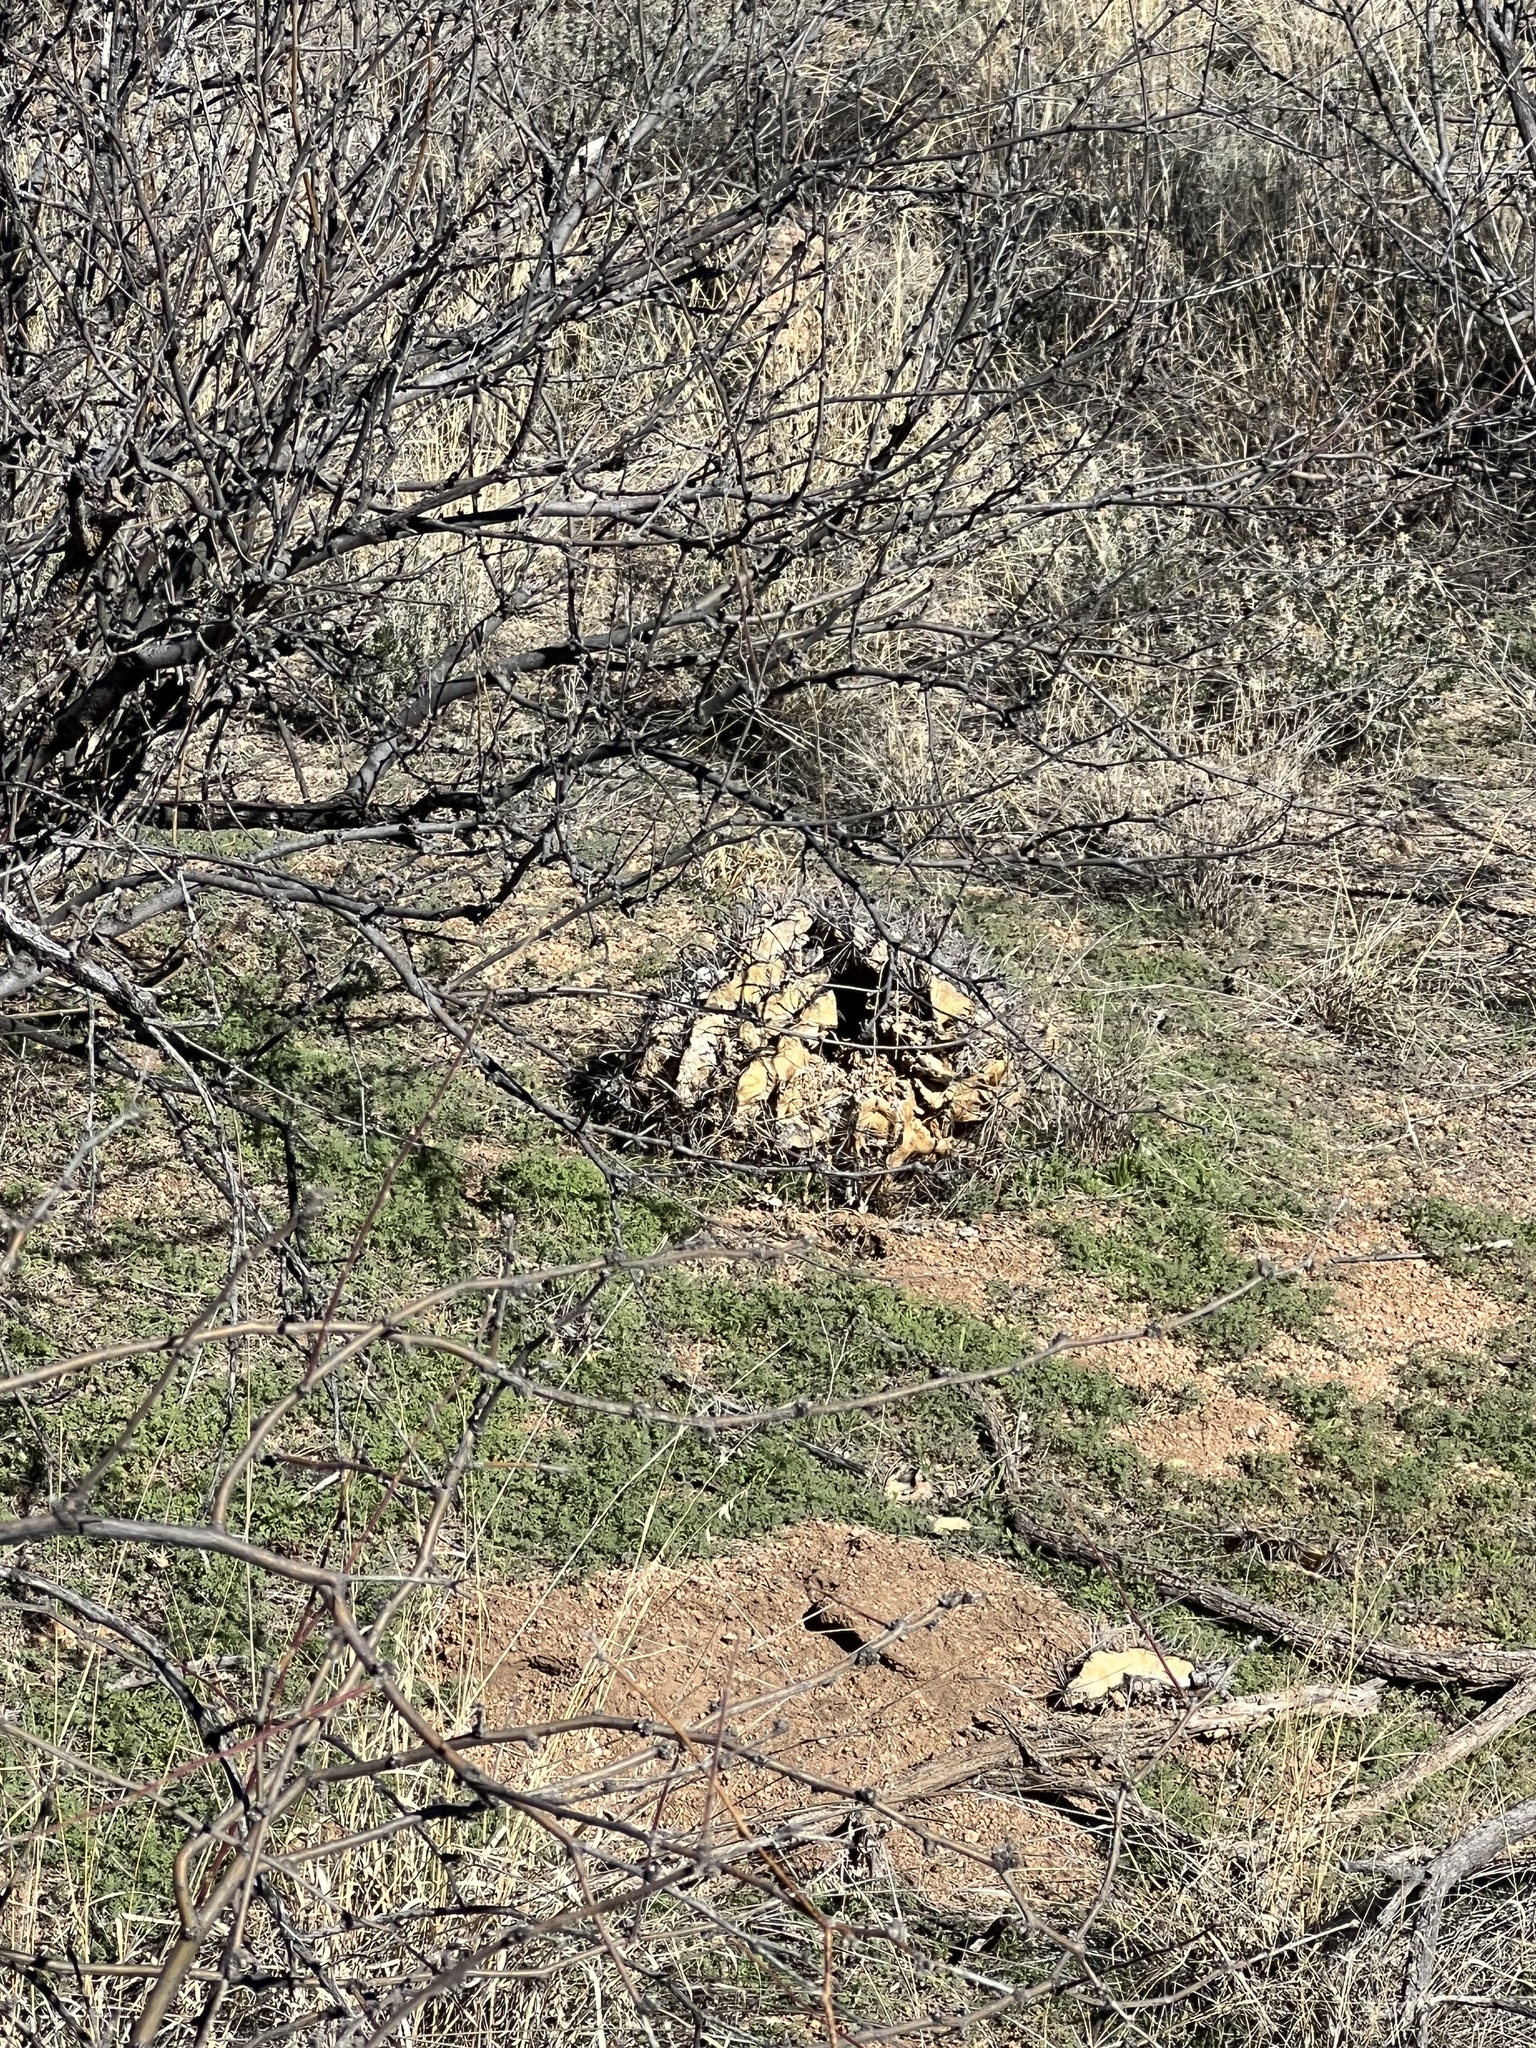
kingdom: Plantae
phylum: Tracheophyta
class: Magnoliopsida
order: Caryophyllales
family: Cactaceae
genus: Ferocactus
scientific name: Ferocactus wislizeni
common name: Candy barrel cactus
